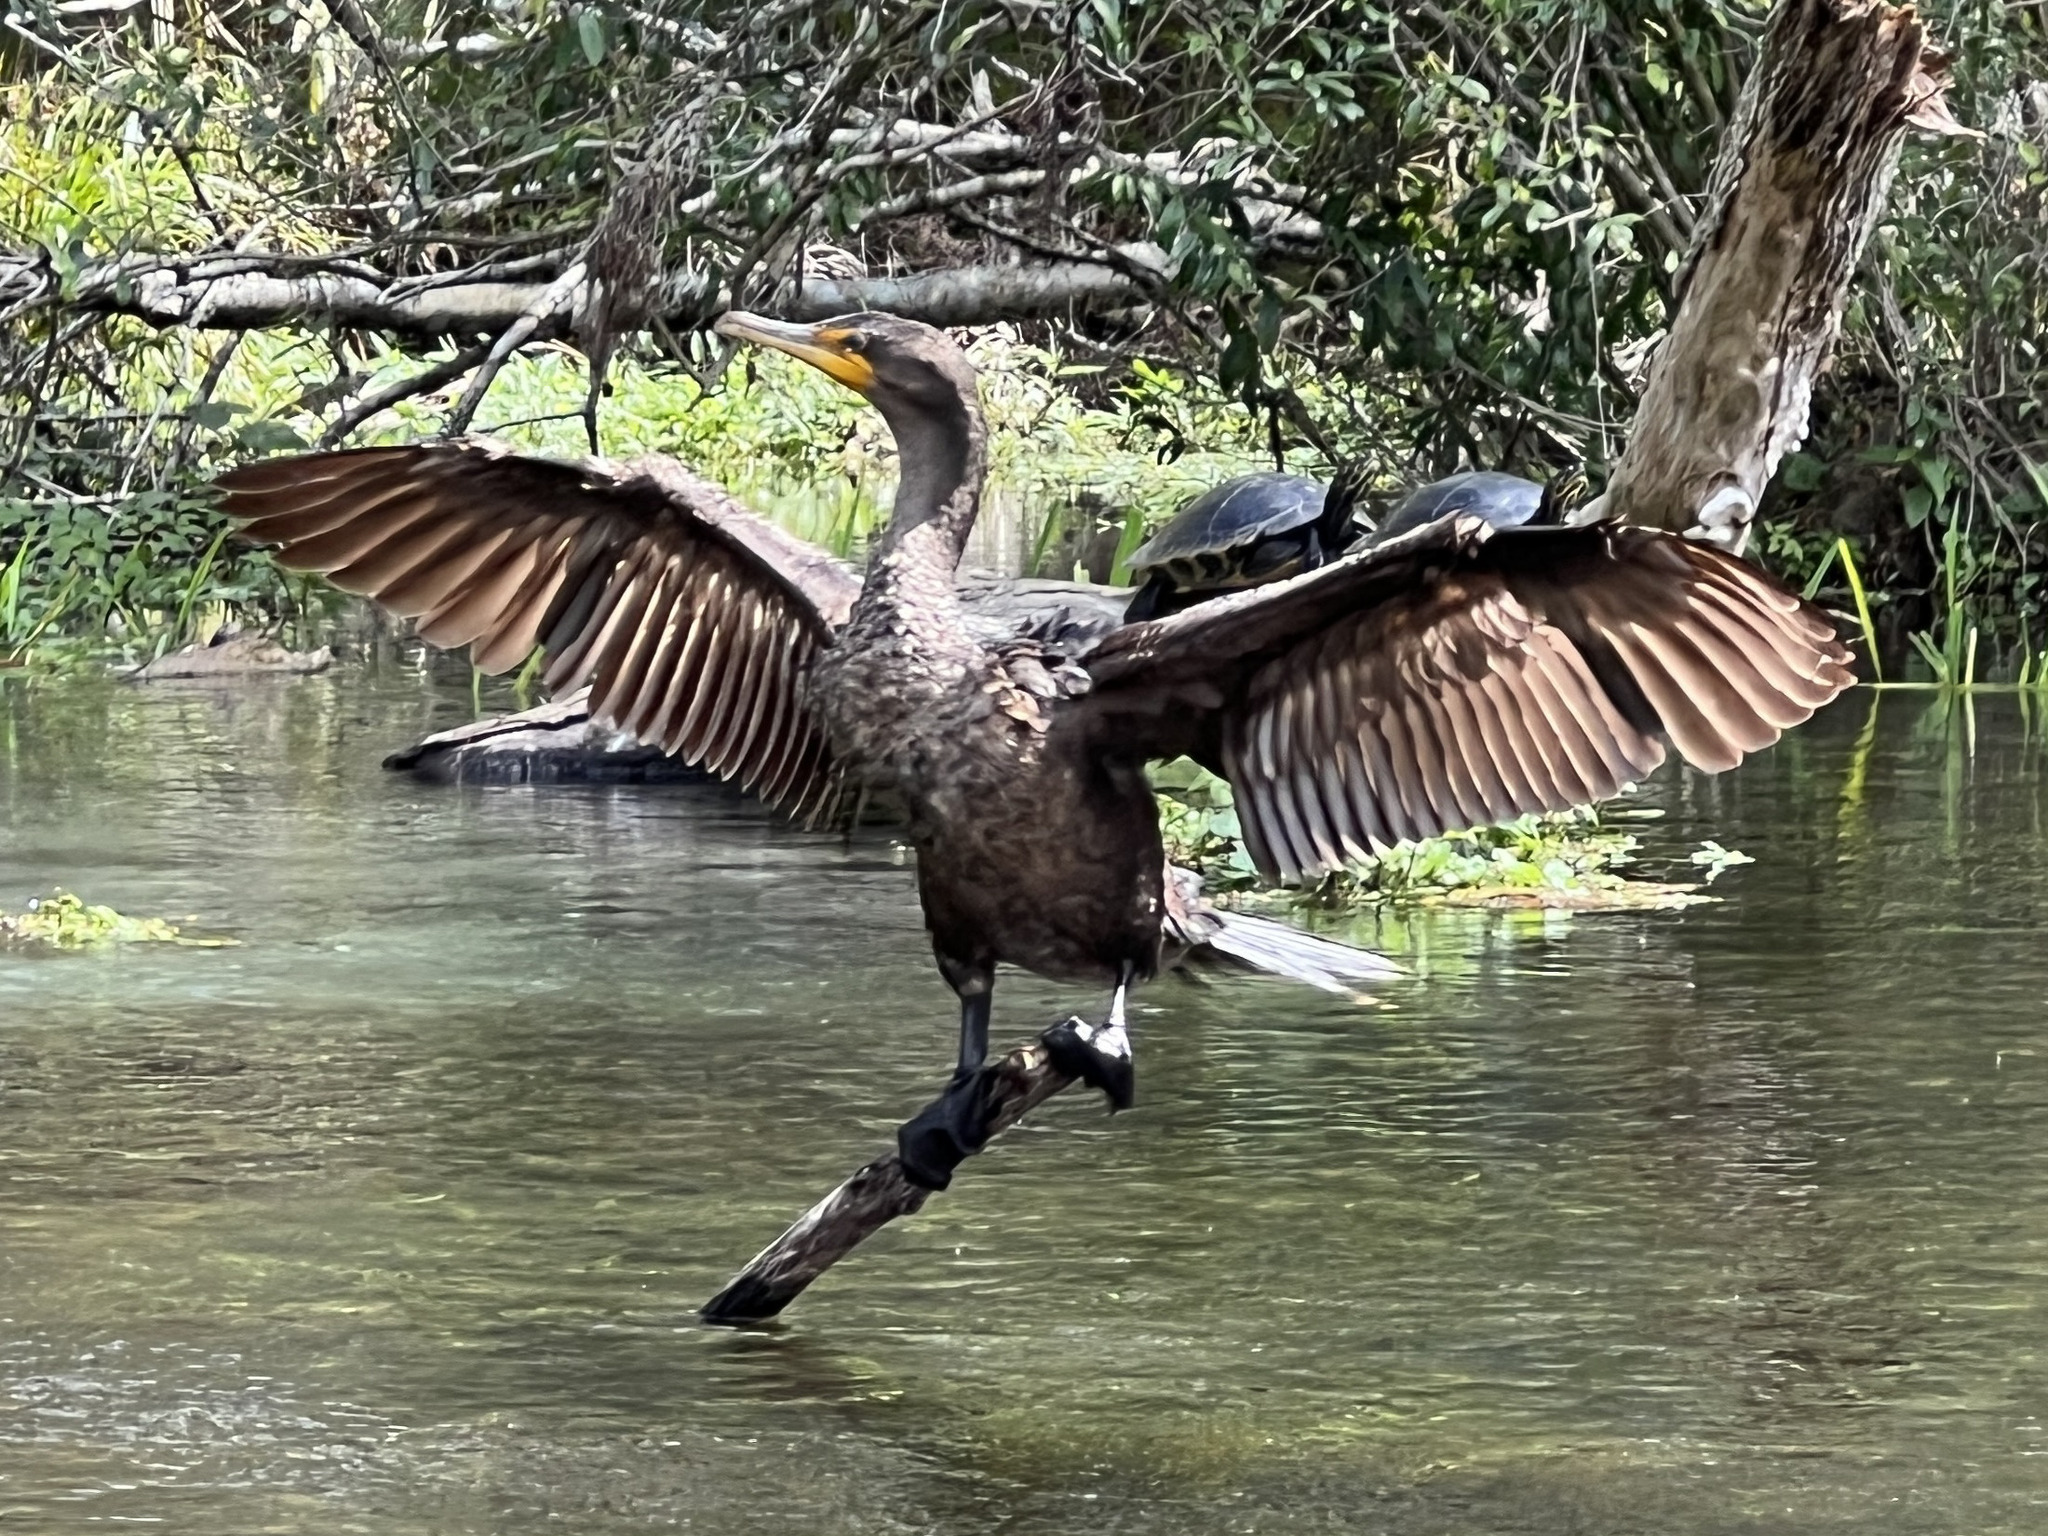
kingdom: Animalia
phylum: Chordata
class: Aves
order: Suliformes
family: Phalacrocoracidae
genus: Phalacrocorax
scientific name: Phalacrocorax auritus
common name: Double-crested cormorant
